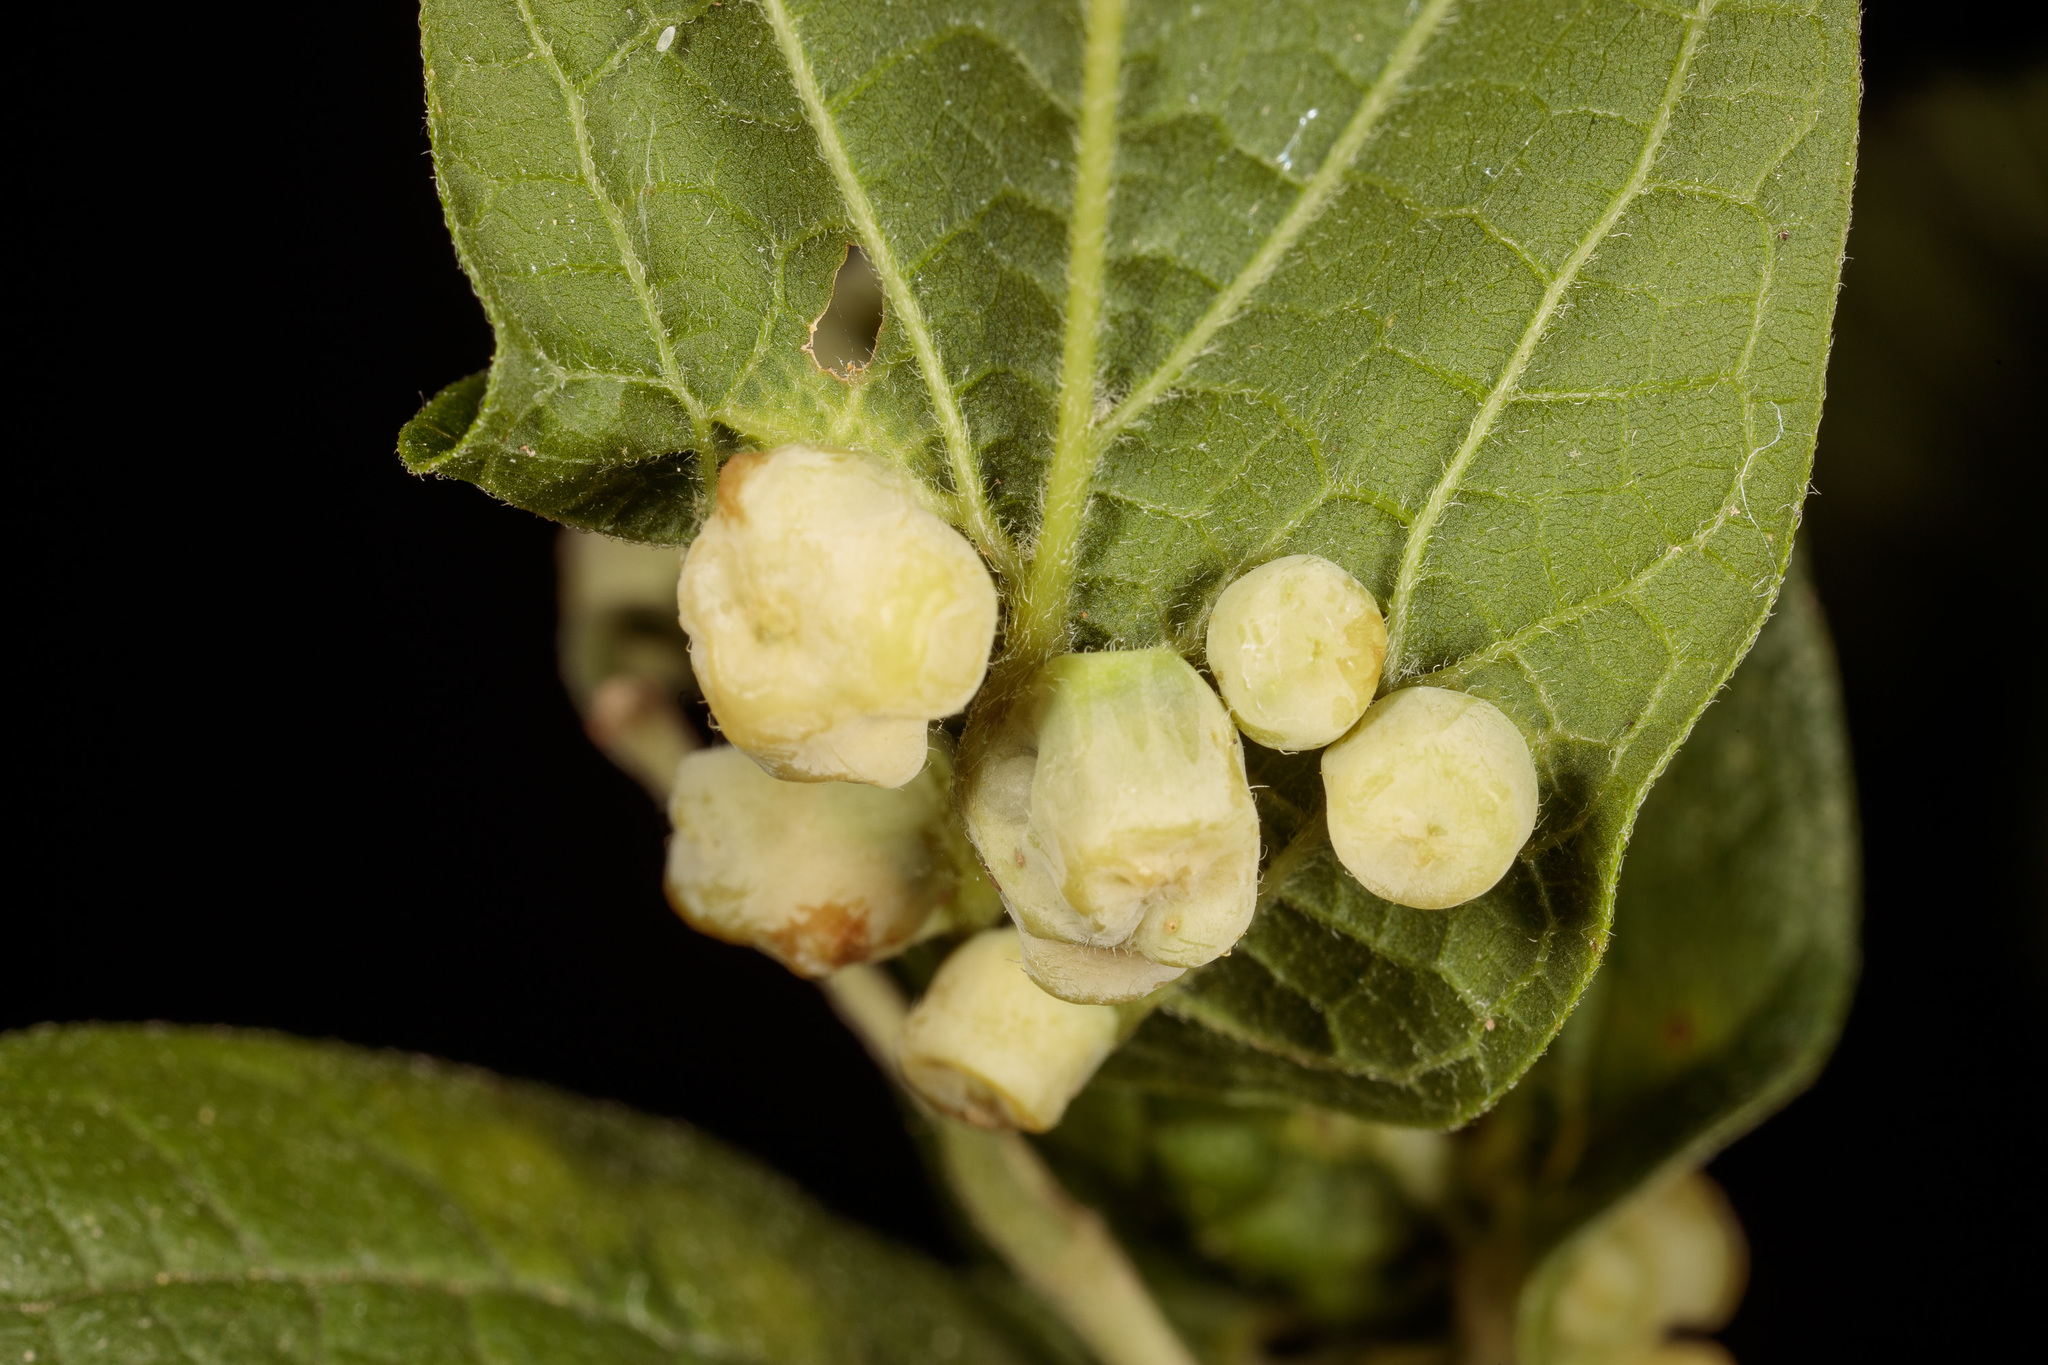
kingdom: Animalia
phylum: Arthropoda
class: Insecta
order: Hemiptera
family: Aphalaridae
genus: Pachypsylla
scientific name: Pachypsylla celtidismamma
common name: Hackberry nipplegall psyllid
